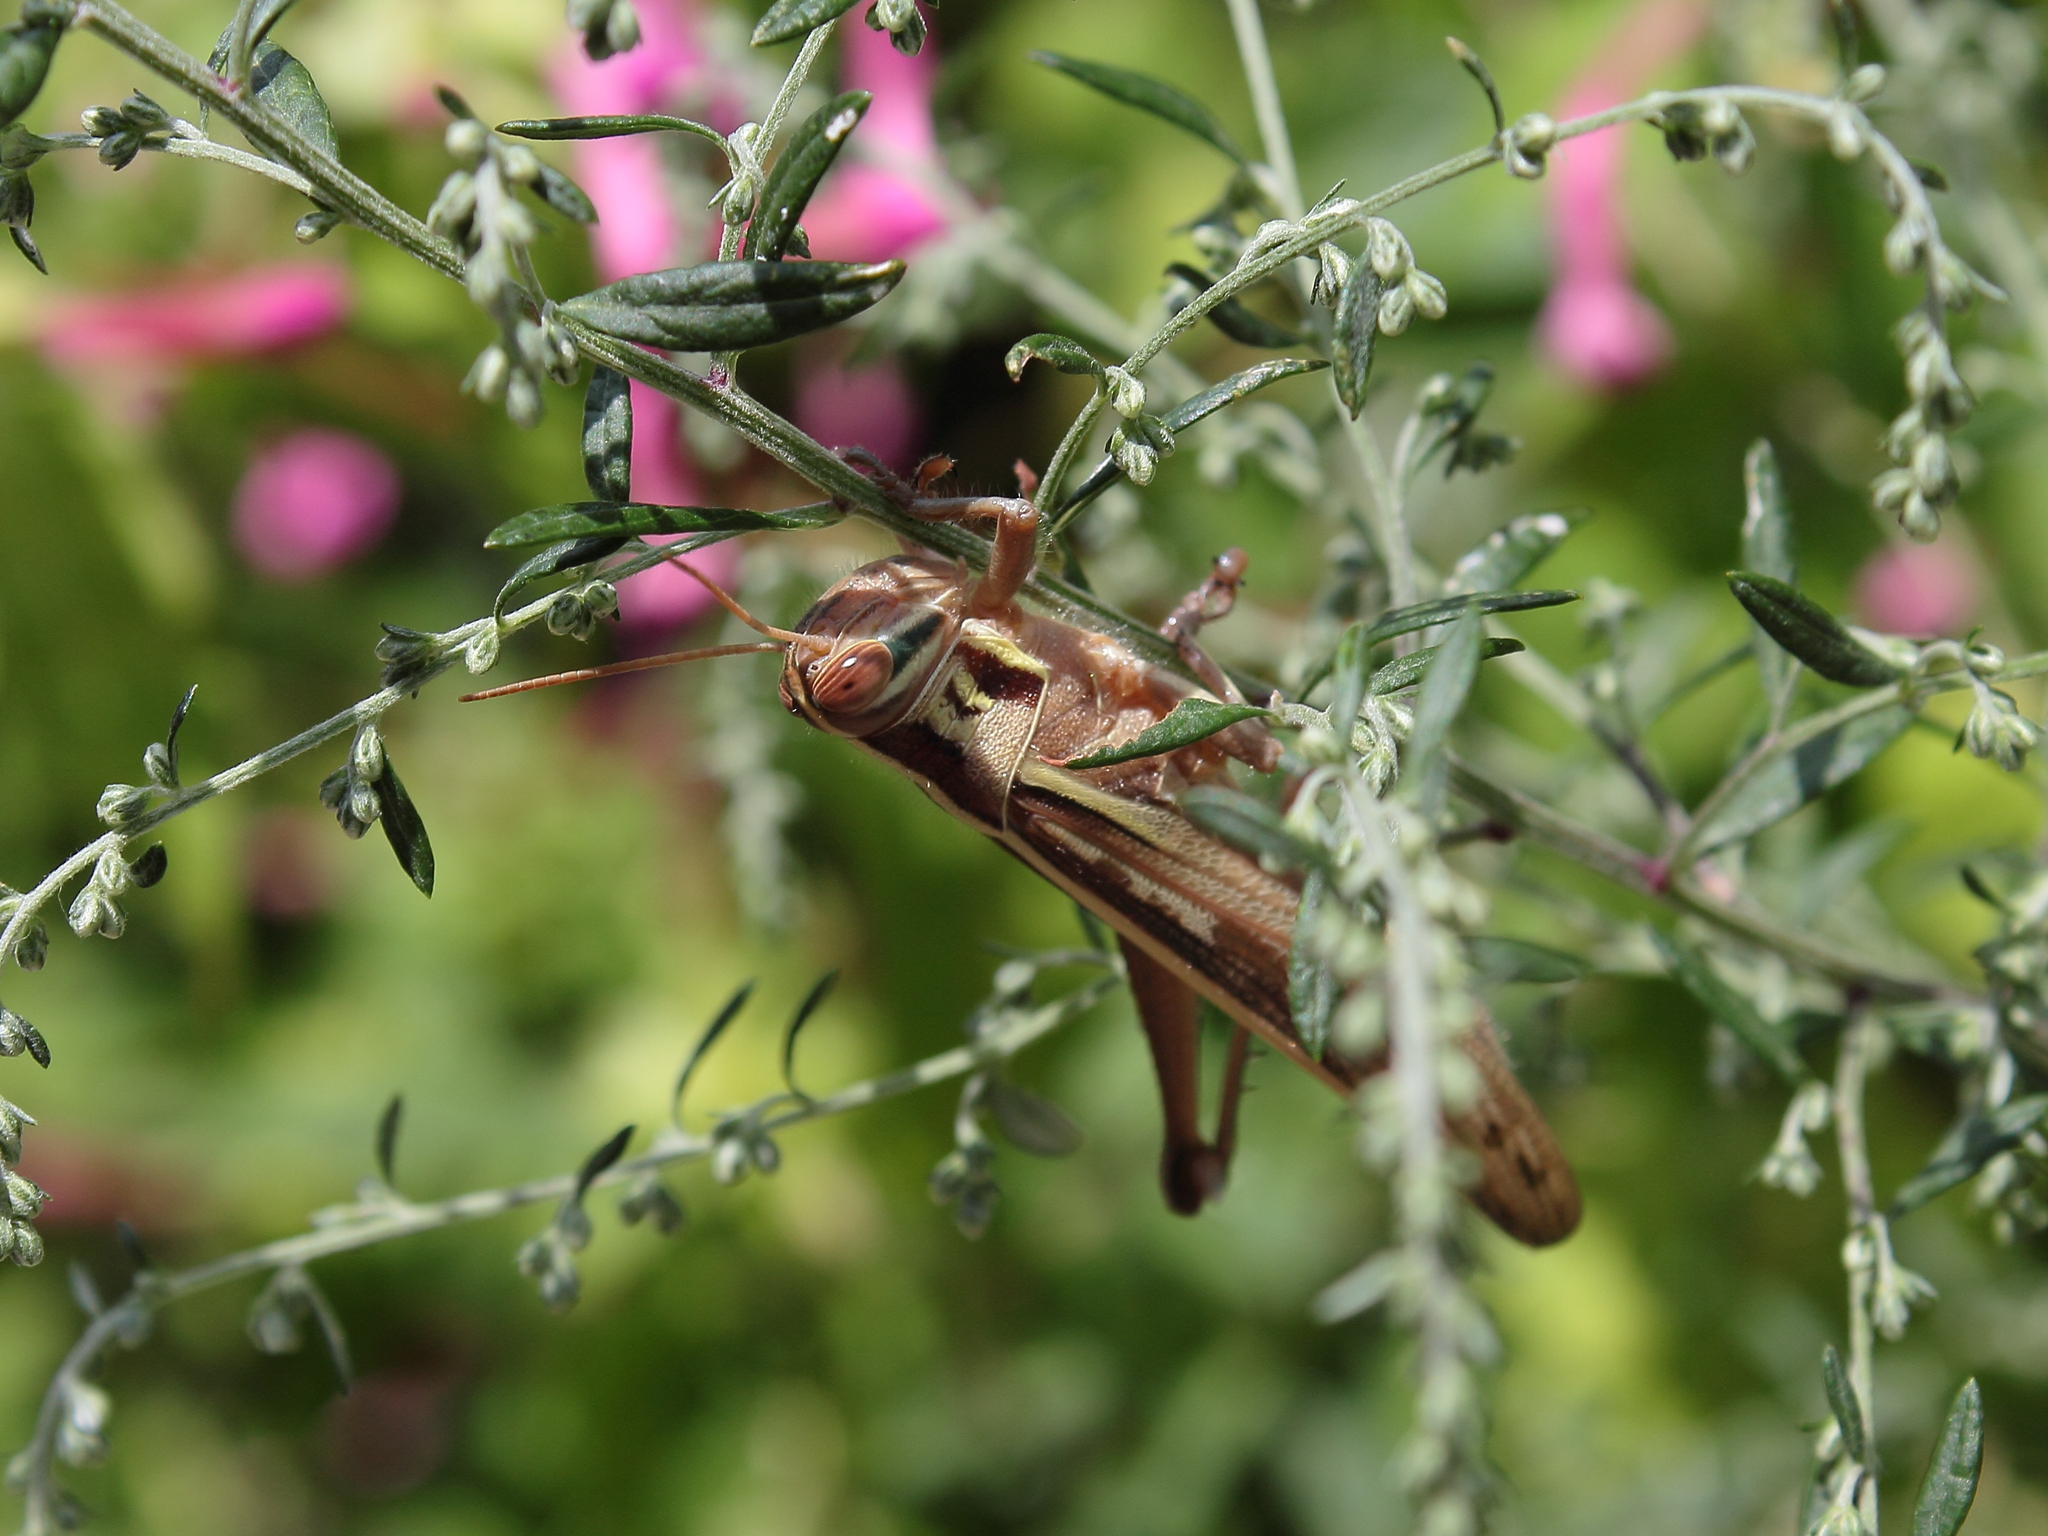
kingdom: Animalia
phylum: Arthropoda
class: Insecta
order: Orthoptera
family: Acrididae
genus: Patanga
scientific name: Patanga japonica
